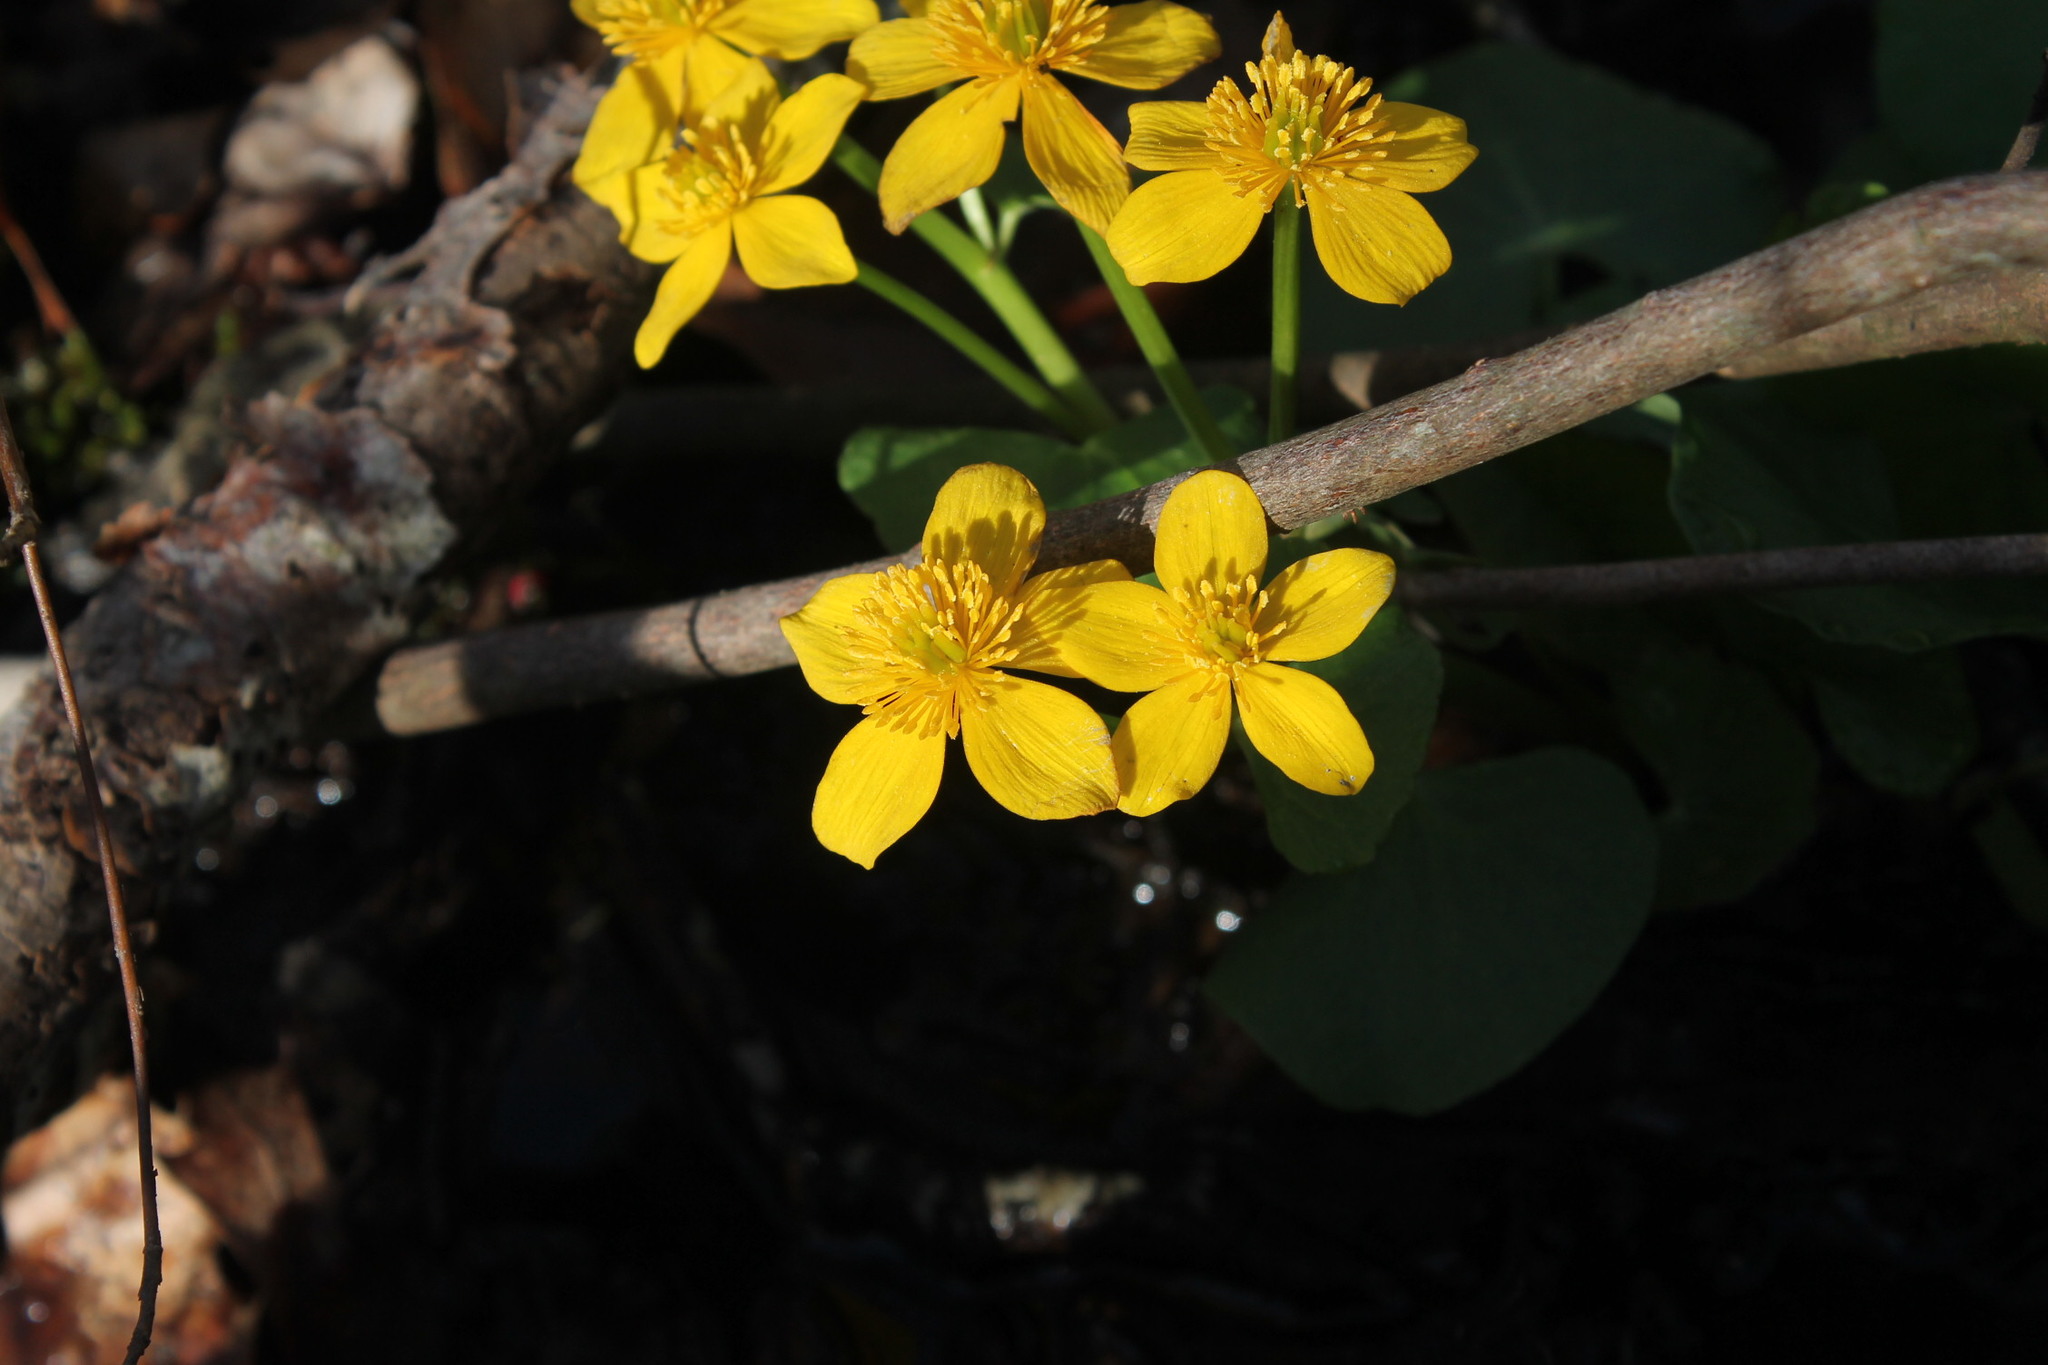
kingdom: Plantae
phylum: Tracheophyta
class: Magnoliopsida
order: Ranunculales
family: Ranunculaceae
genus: Caltha
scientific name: Caltha palustris
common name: Marsh marigold
